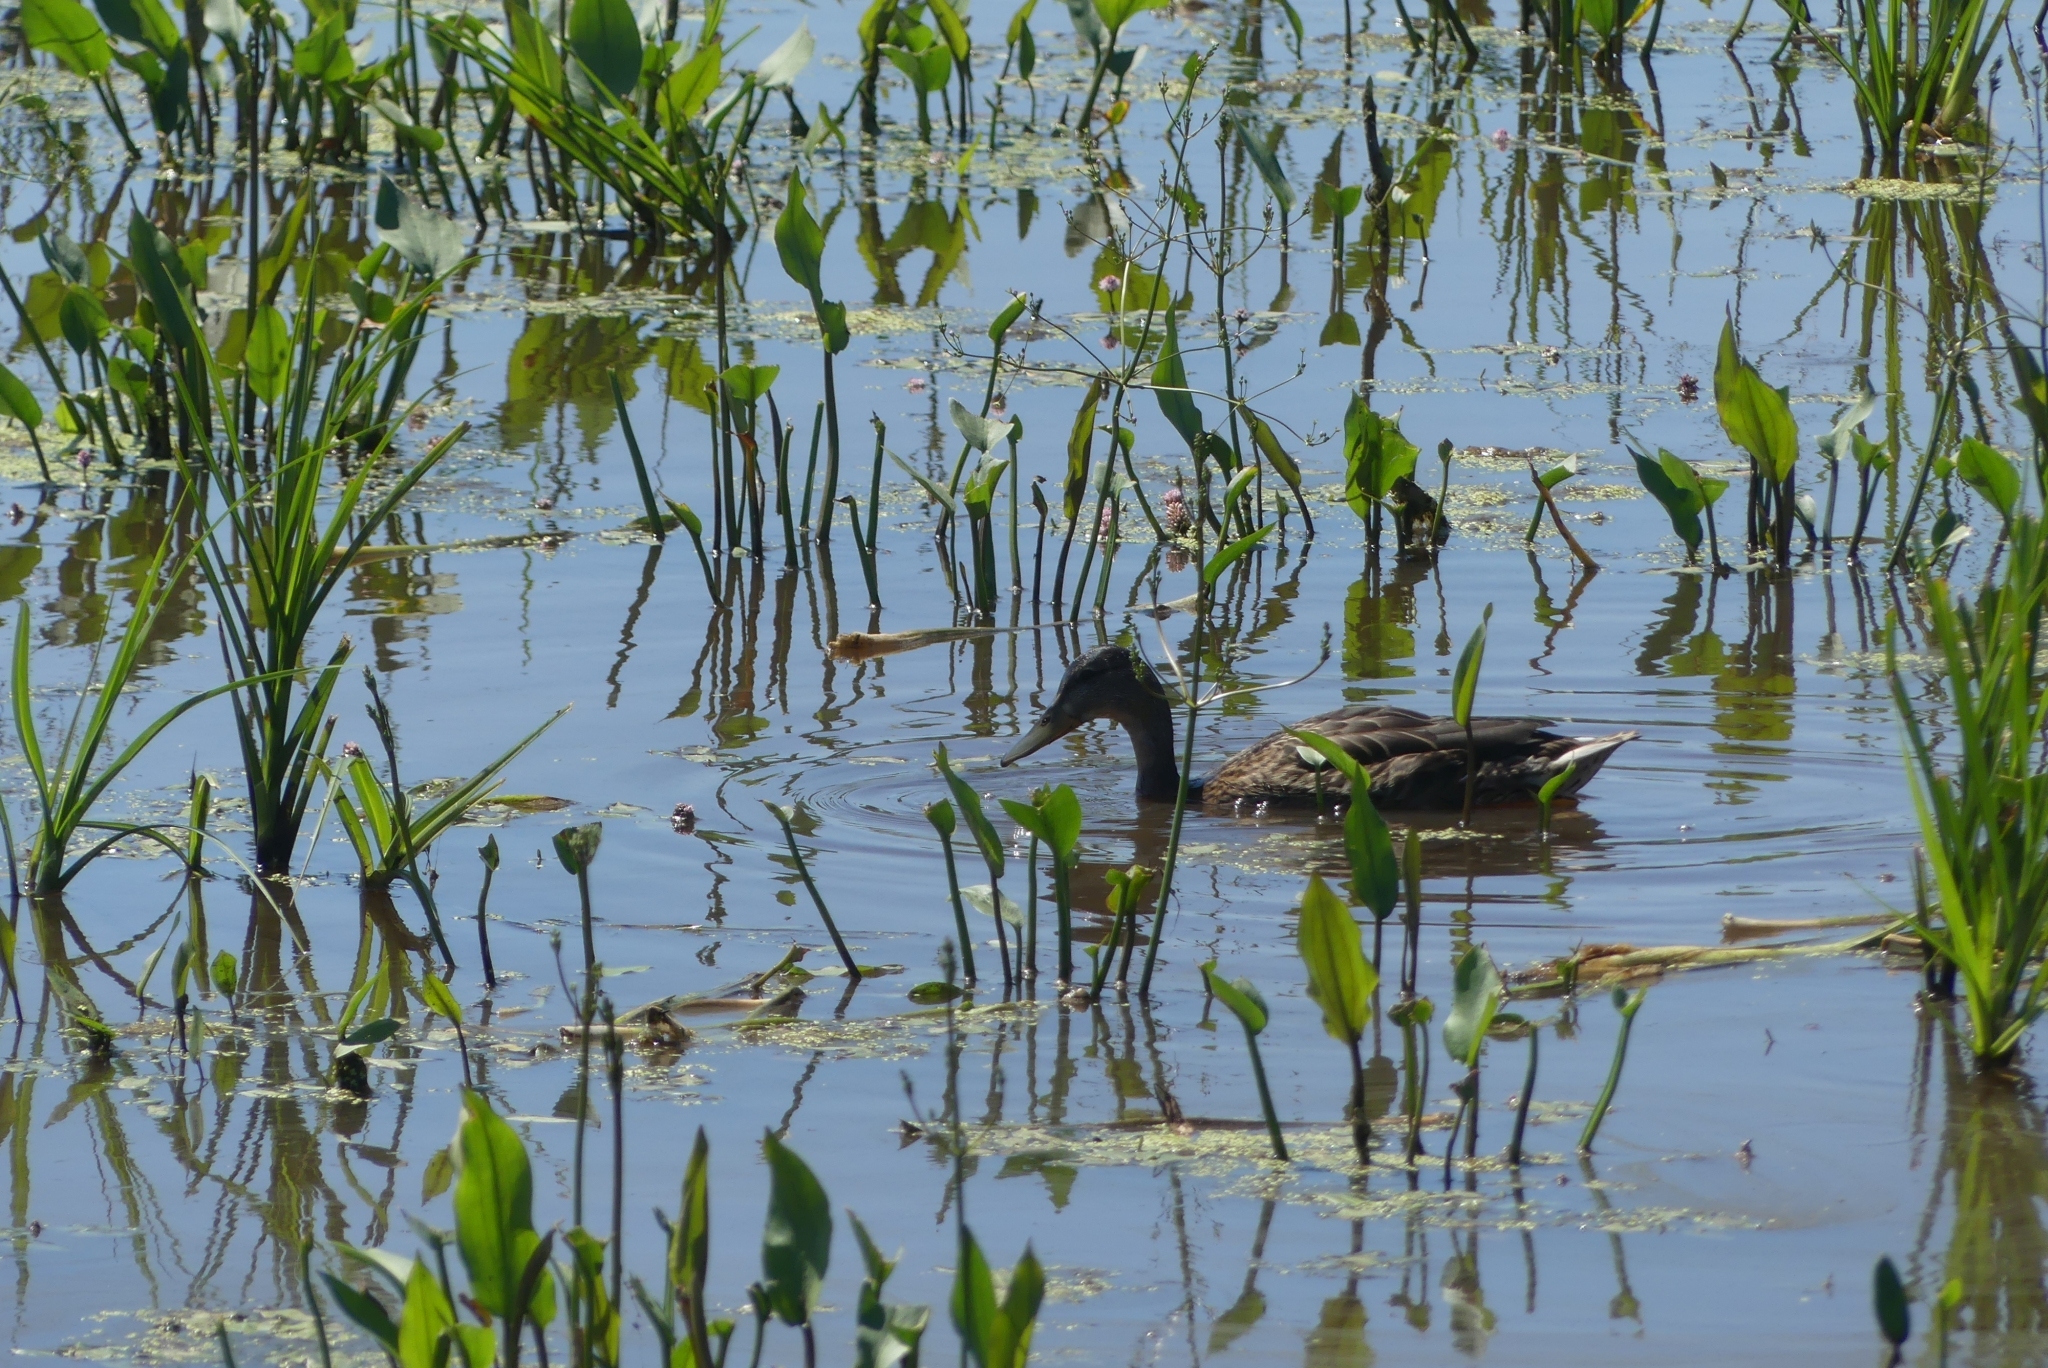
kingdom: Animalia
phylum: Chordata
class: Aves
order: Anseriformes
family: Anatidae
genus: Anas
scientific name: Anas platyrhynchos
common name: Mallard
